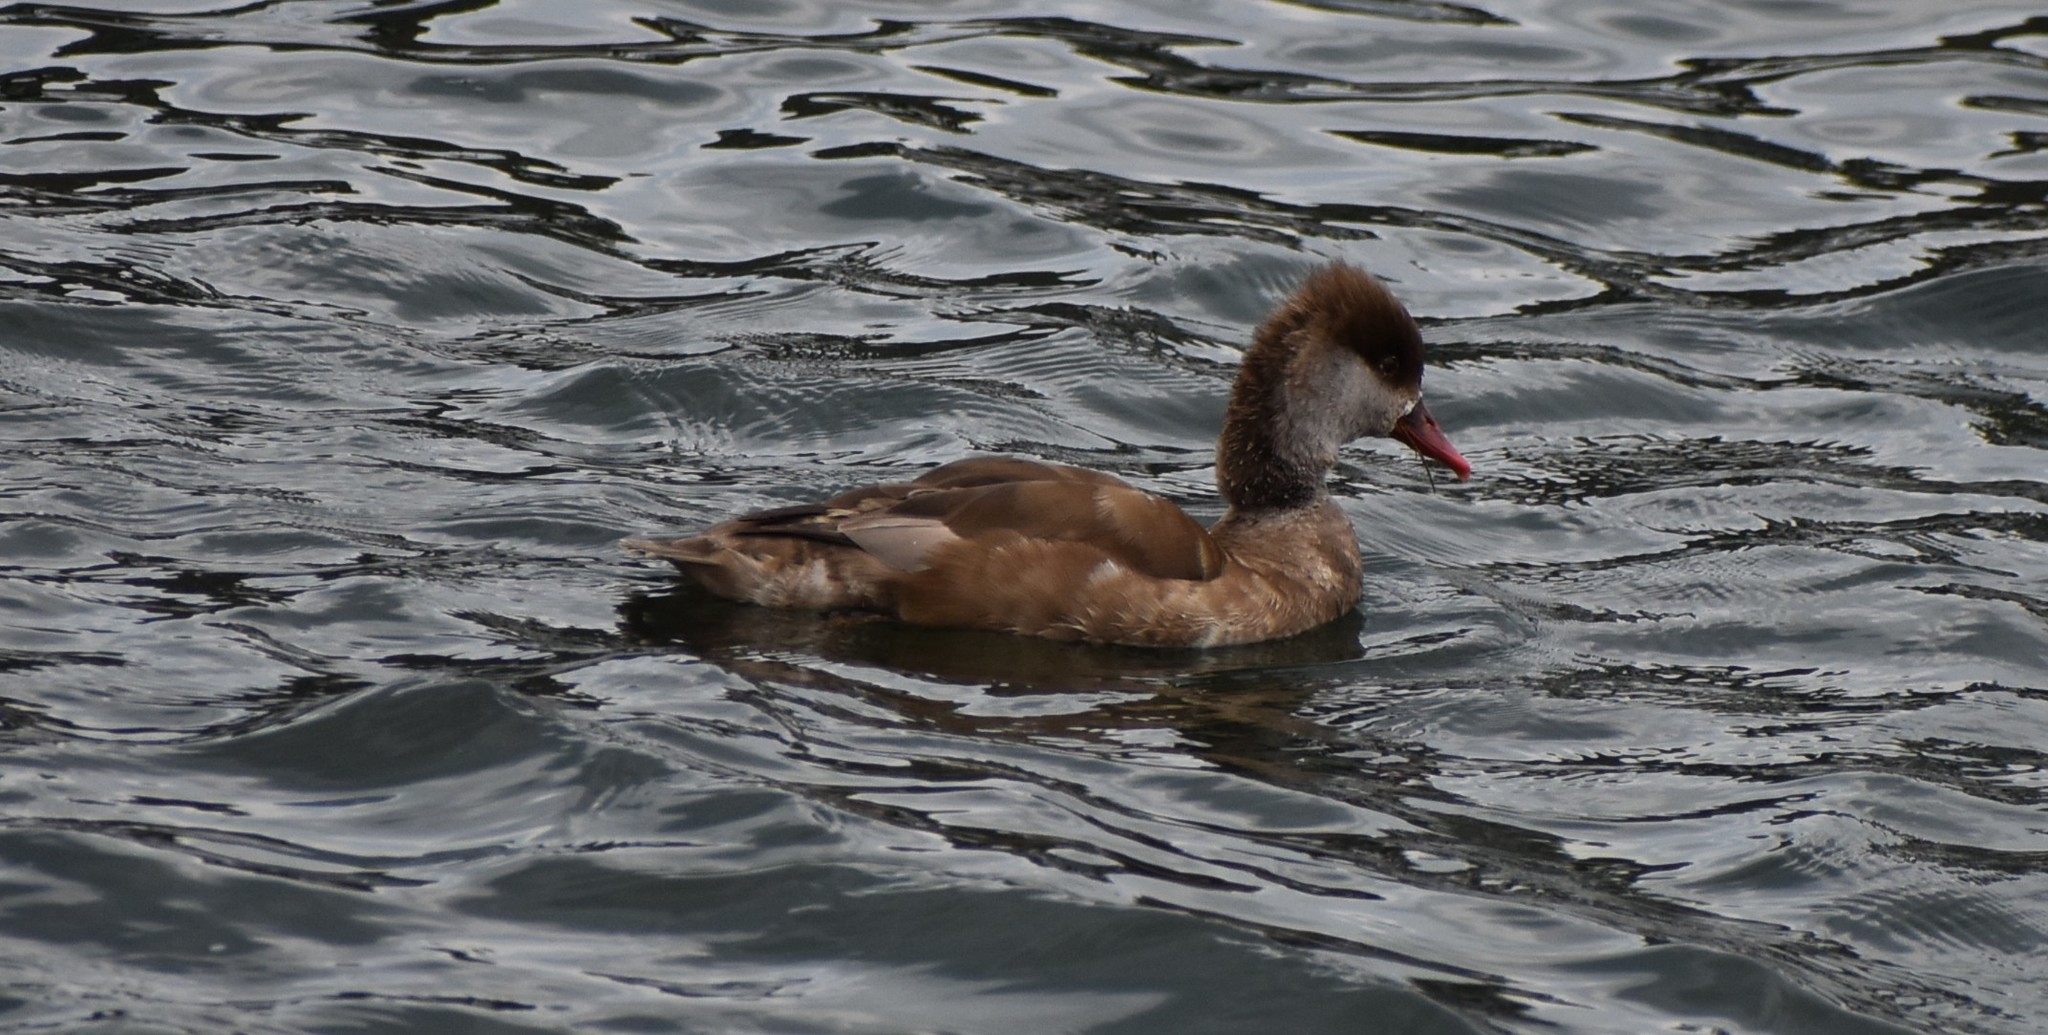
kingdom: Animalia
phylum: Chordata
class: Aves
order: Anseriformes
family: Anatidae
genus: Netta
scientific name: Netta rufina
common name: Red-crested pochard
